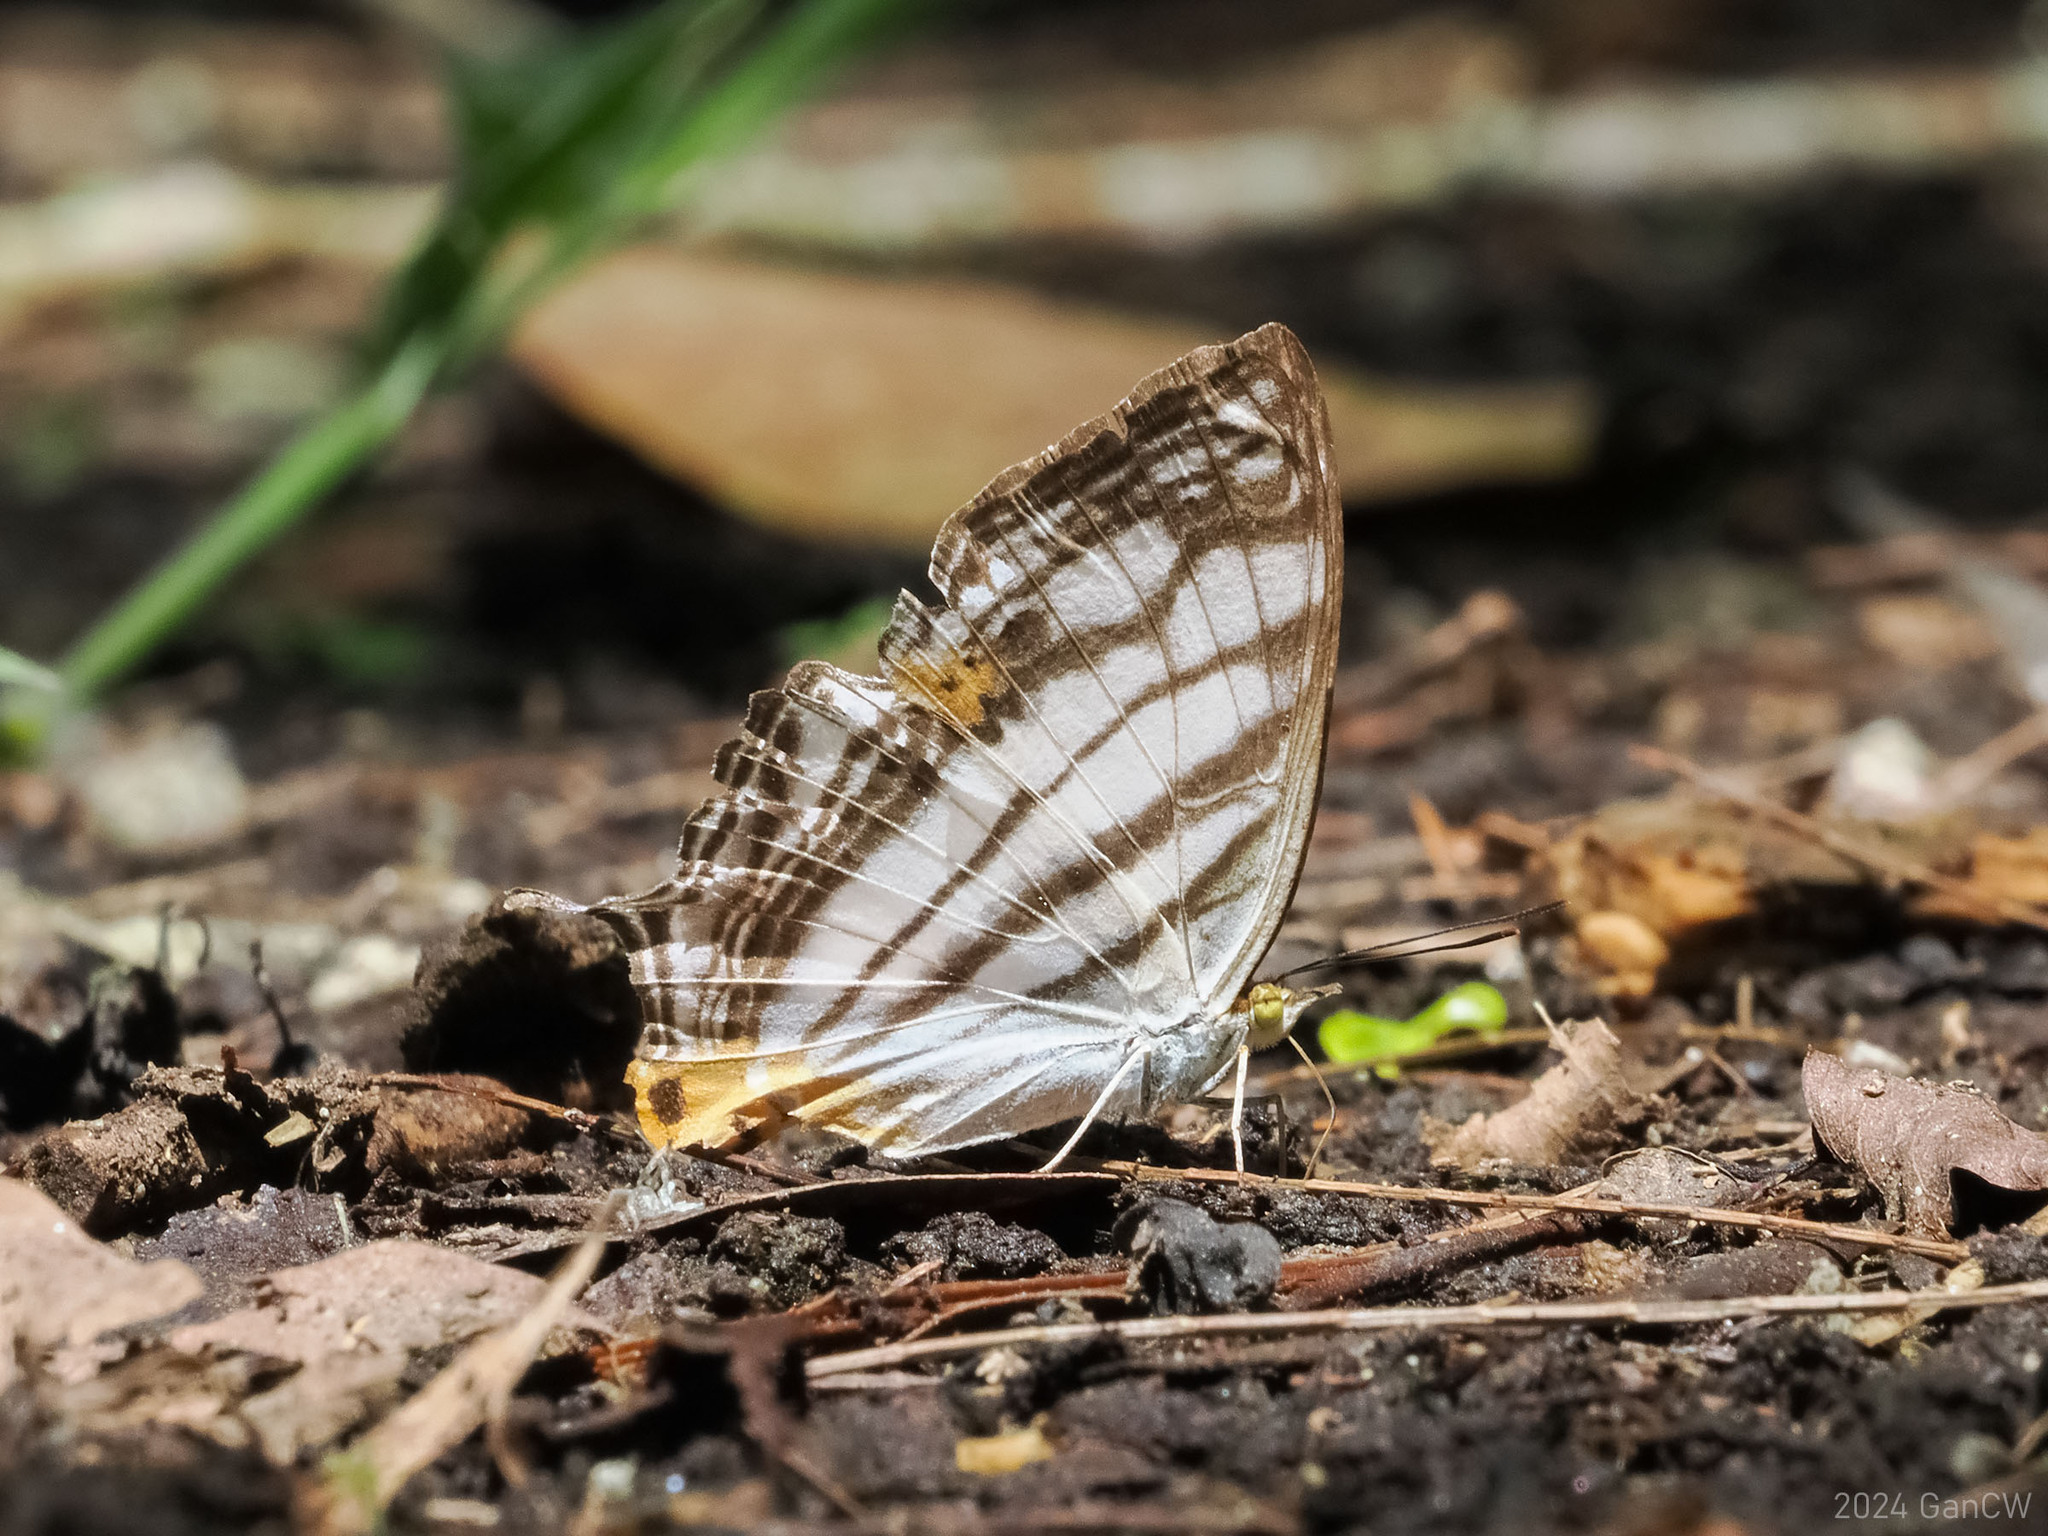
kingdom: Animalia
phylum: Arthropoda
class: Insecta
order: Lepidoptera
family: Nymphalidae
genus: Cyrestis
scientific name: Cyrestis maenalis
